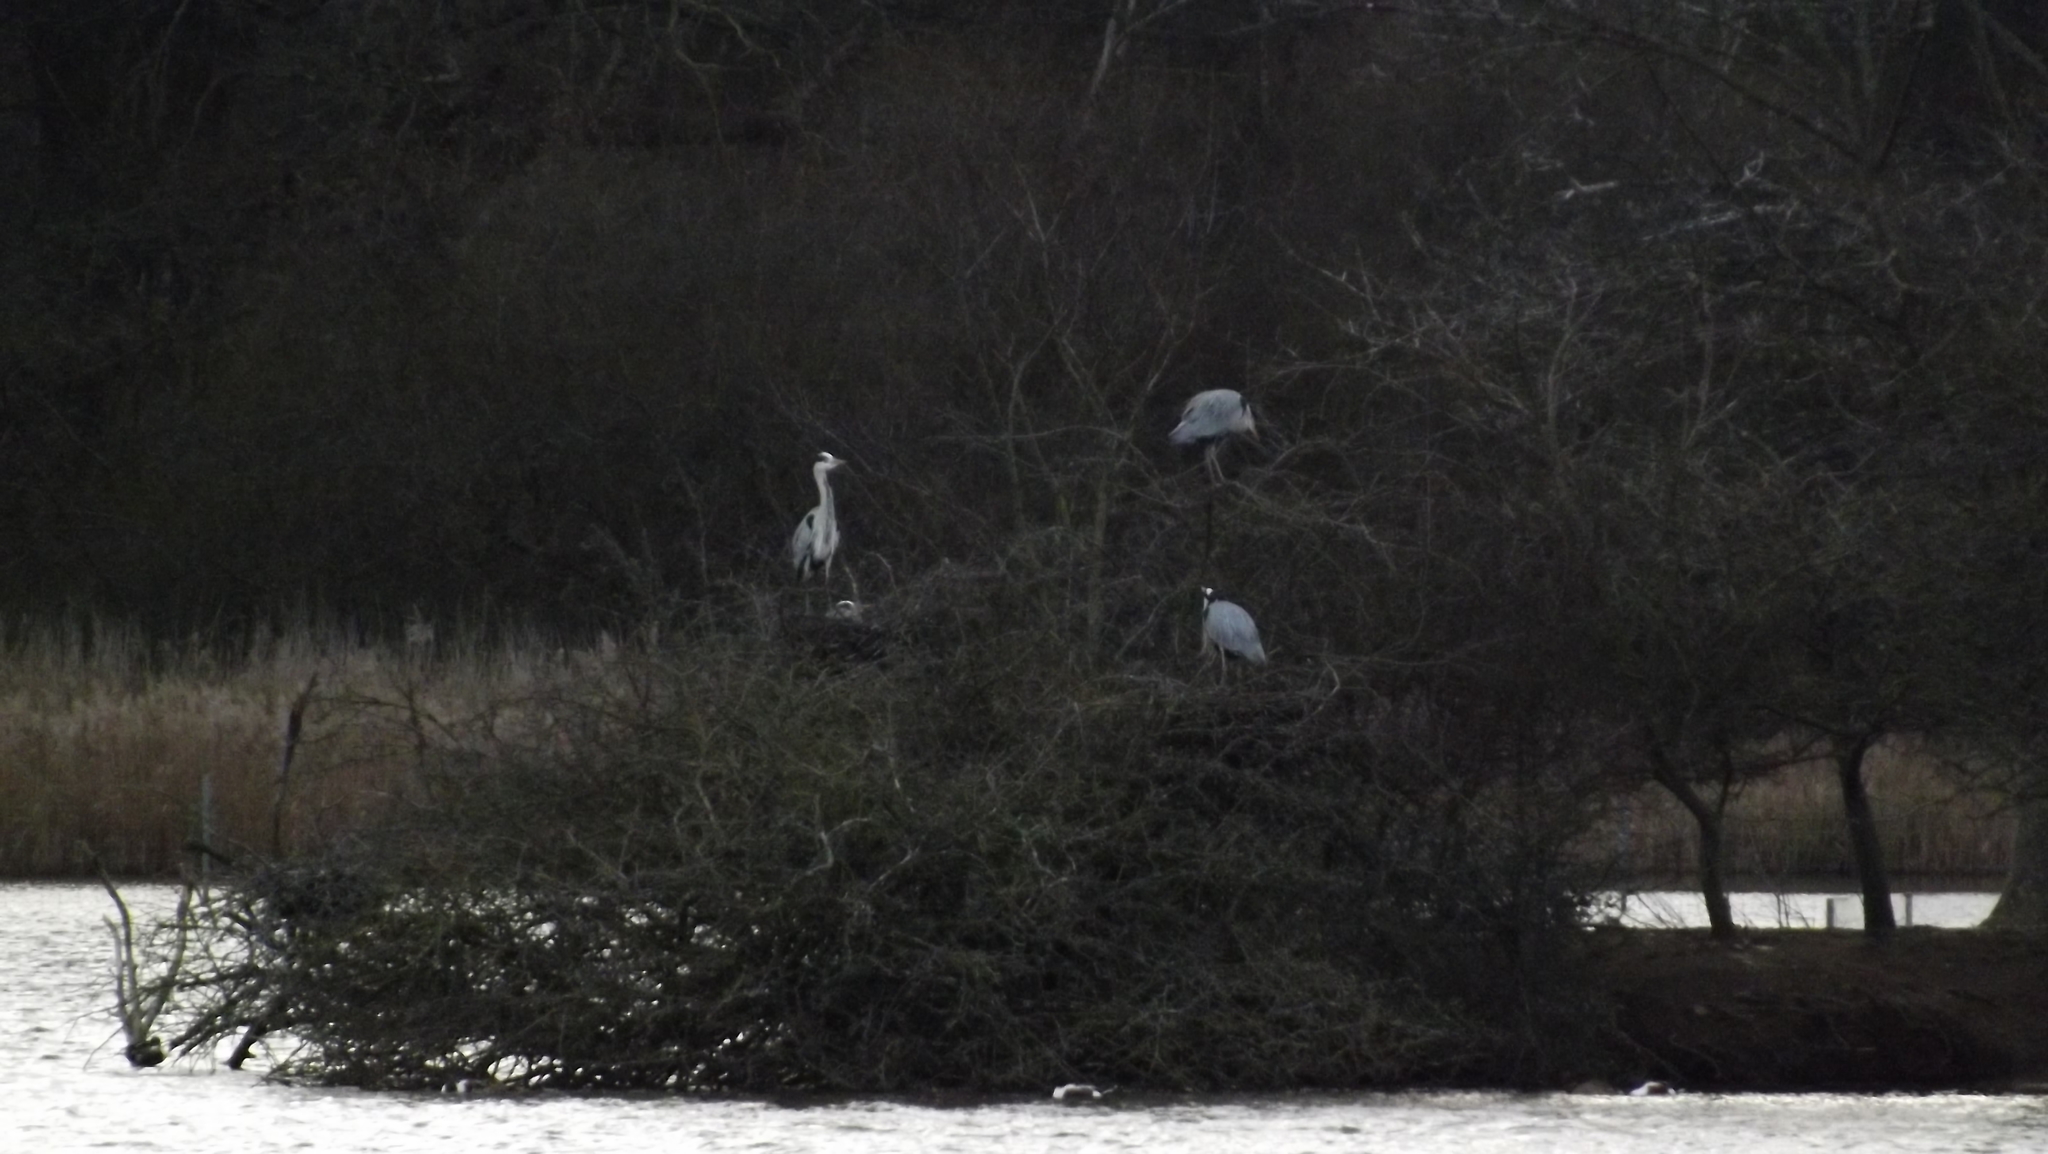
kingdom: Animalia
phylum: Chordata
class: Aves
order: Pelecaniformes
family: Ardeidae
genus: Ardea
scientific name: Ardea cinerea
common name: Grey heron
